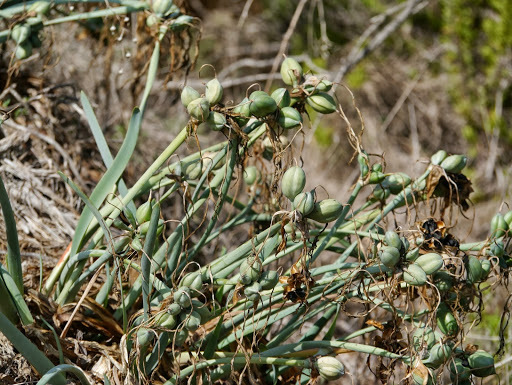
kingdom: Plantae
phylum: Tracheophyta
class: Liliopsida
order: Asparagales
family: Amaryllidaceae
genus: Pancratium
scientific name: Pancratium maritimum
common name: Sea-daffodil
